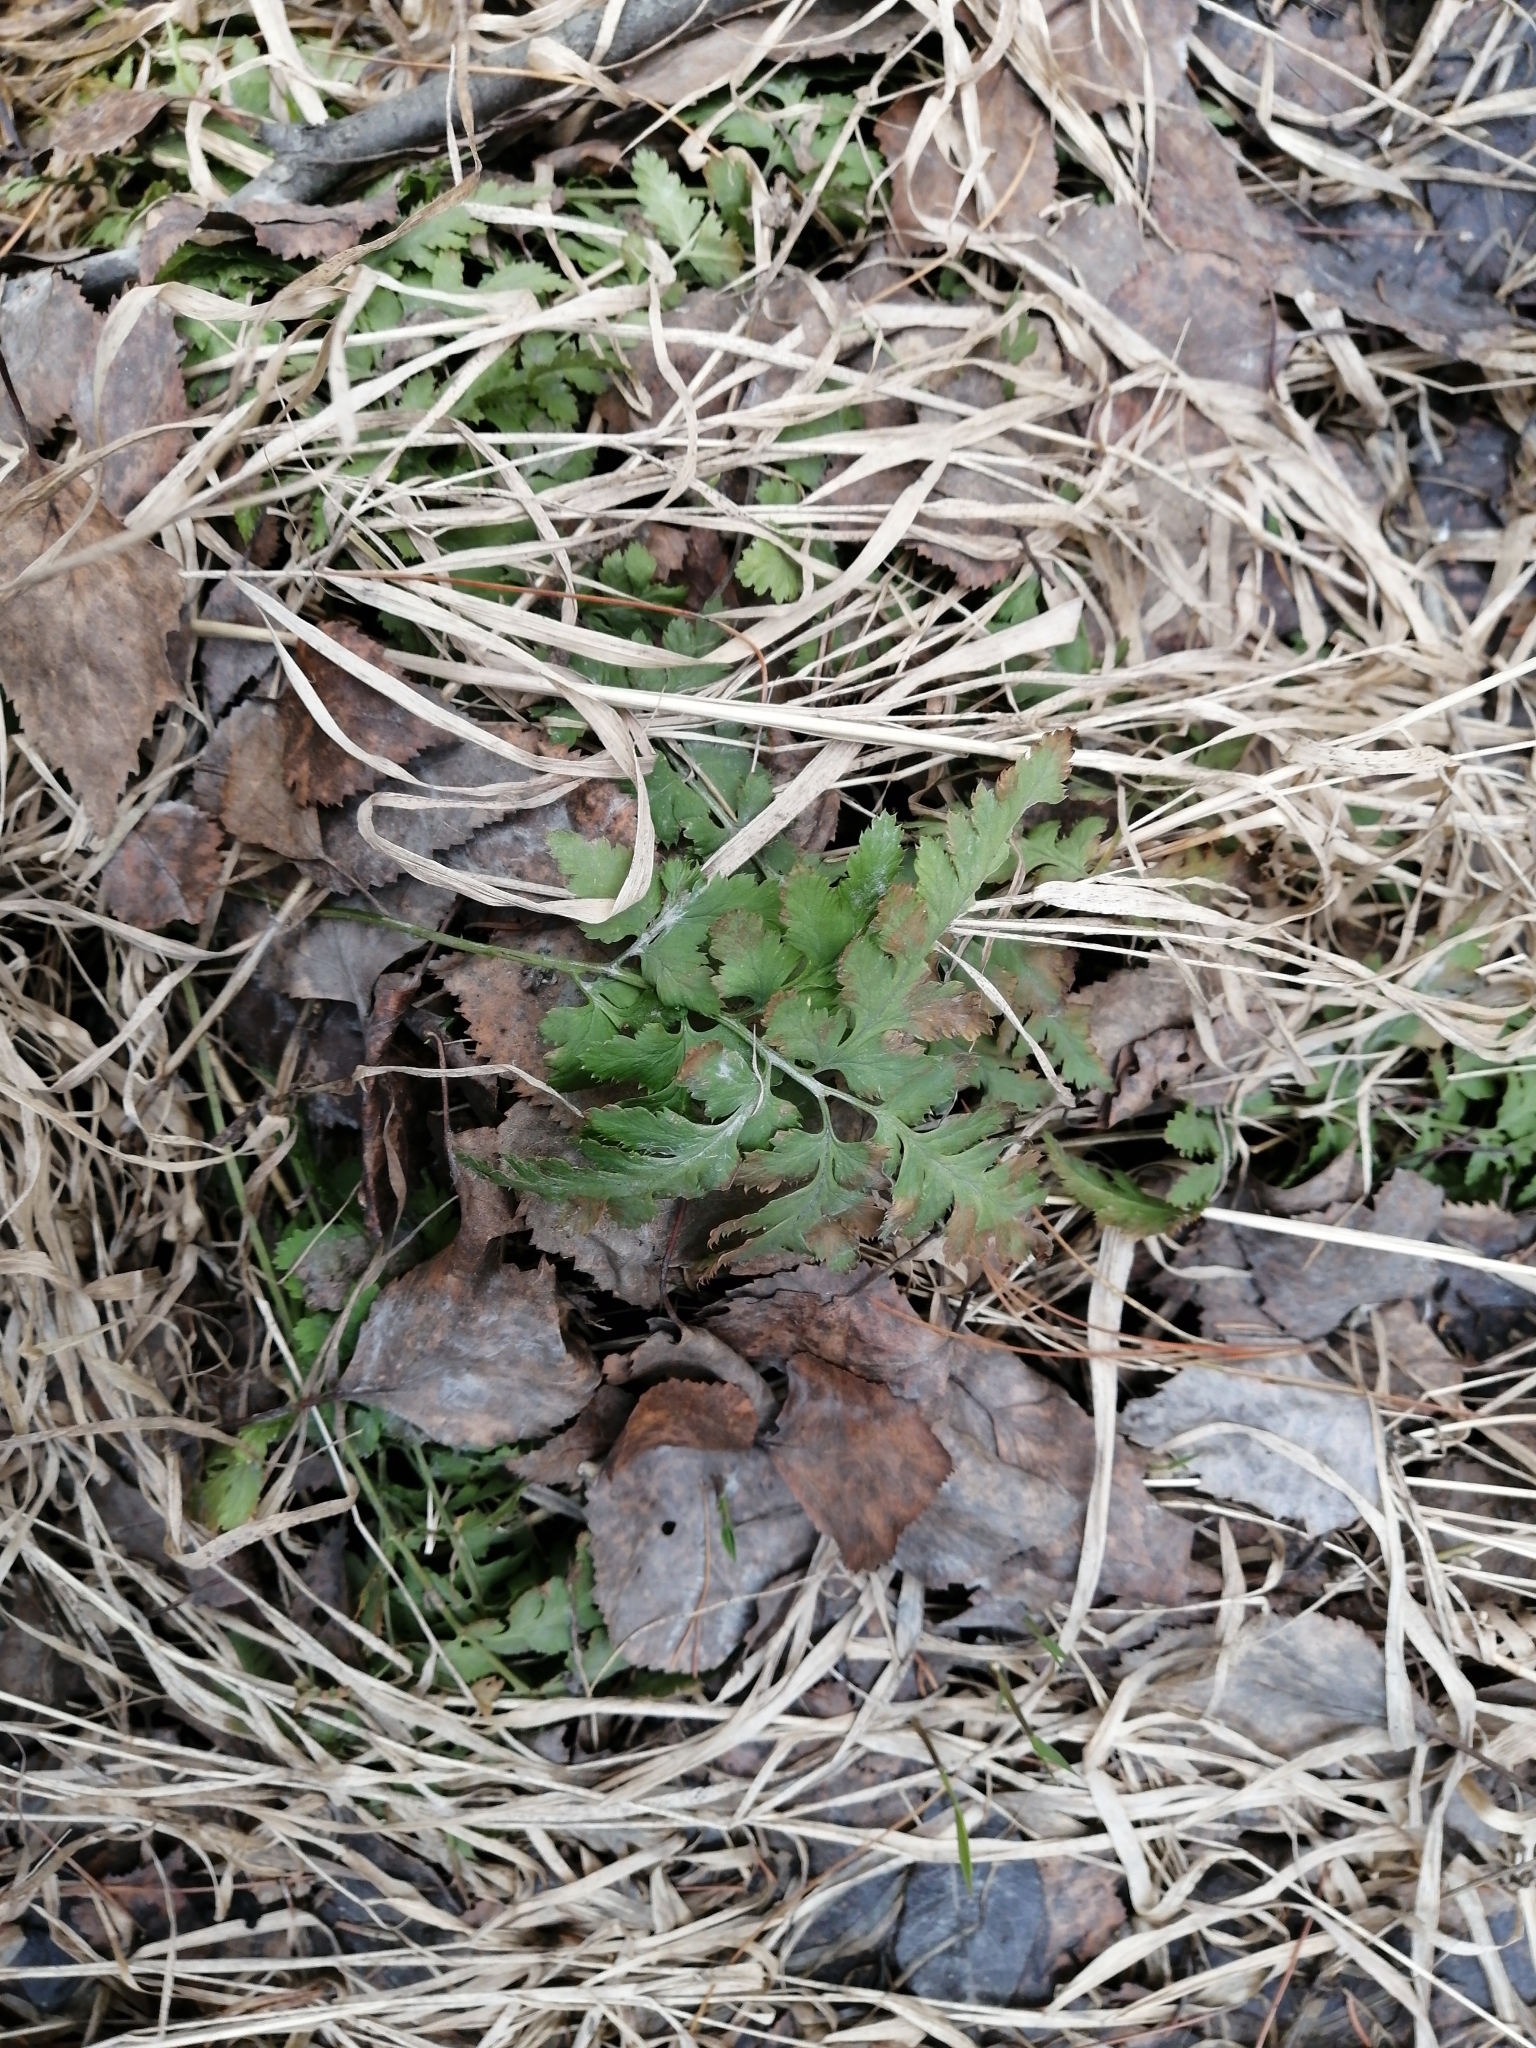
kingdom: Plantae
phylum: Tracheophyta
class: Polypodiopsida
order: Polypodiales
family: Dryopteridaceae
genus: Dryopteris
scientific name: Dryopteris carthusiana
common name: Narrow buckler-fern
